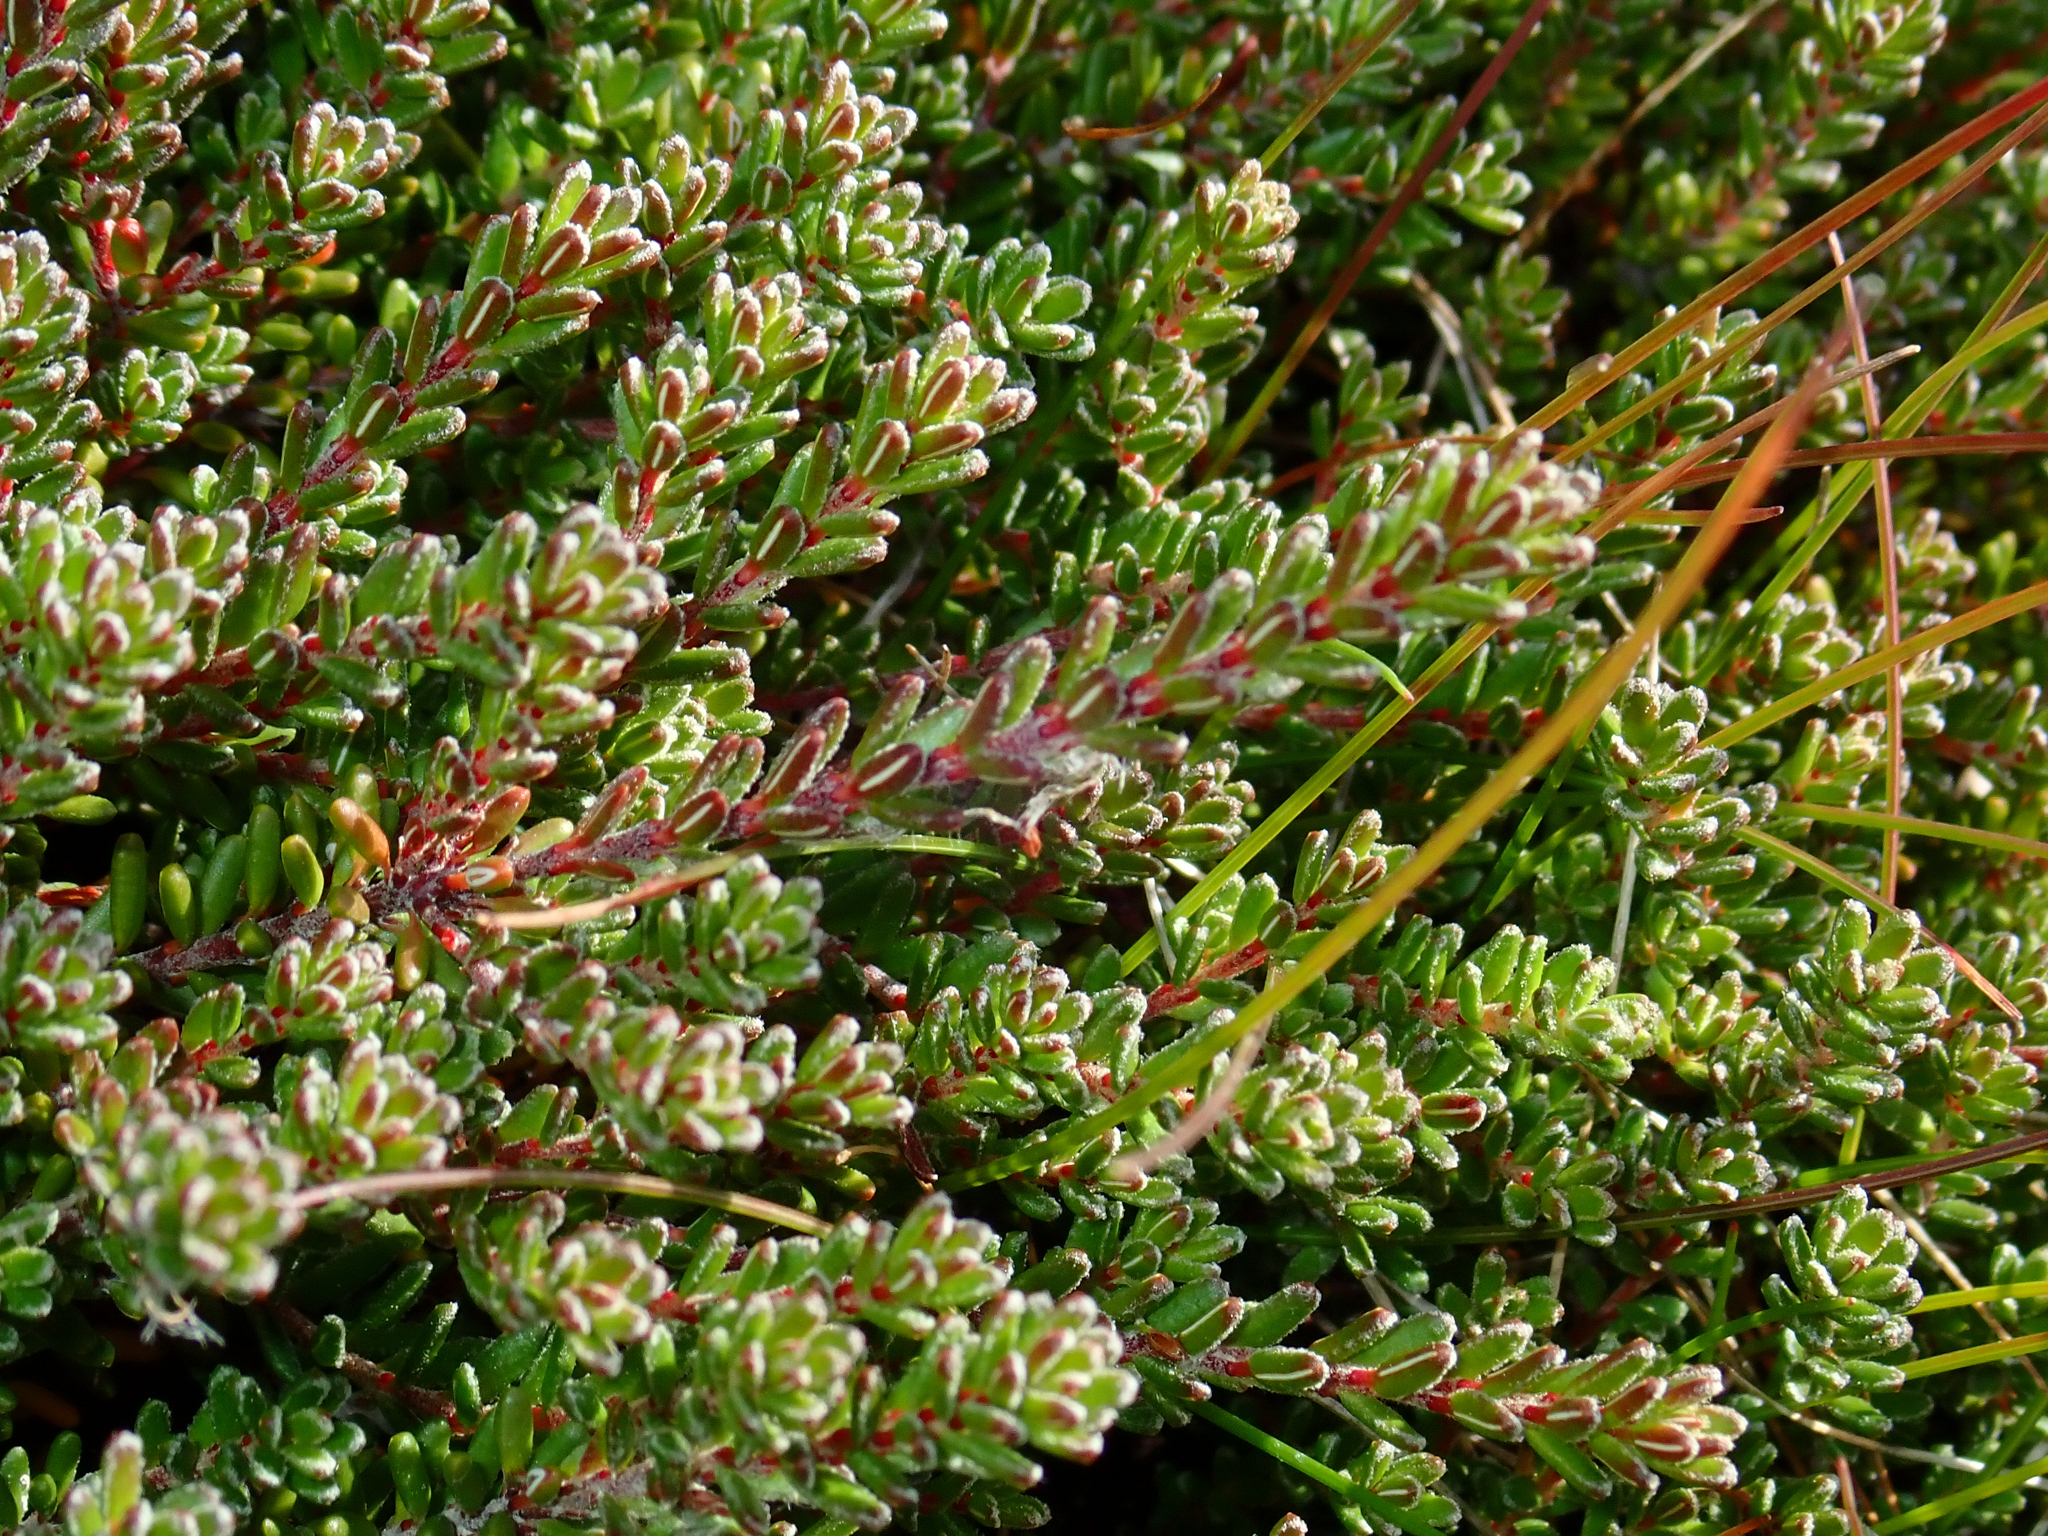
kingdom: Plantae
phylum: Tracheophyta
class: Magnoliopsida
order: Ericales
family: Ericaceae
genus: Empetrum
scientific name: Empetrum rubrum
